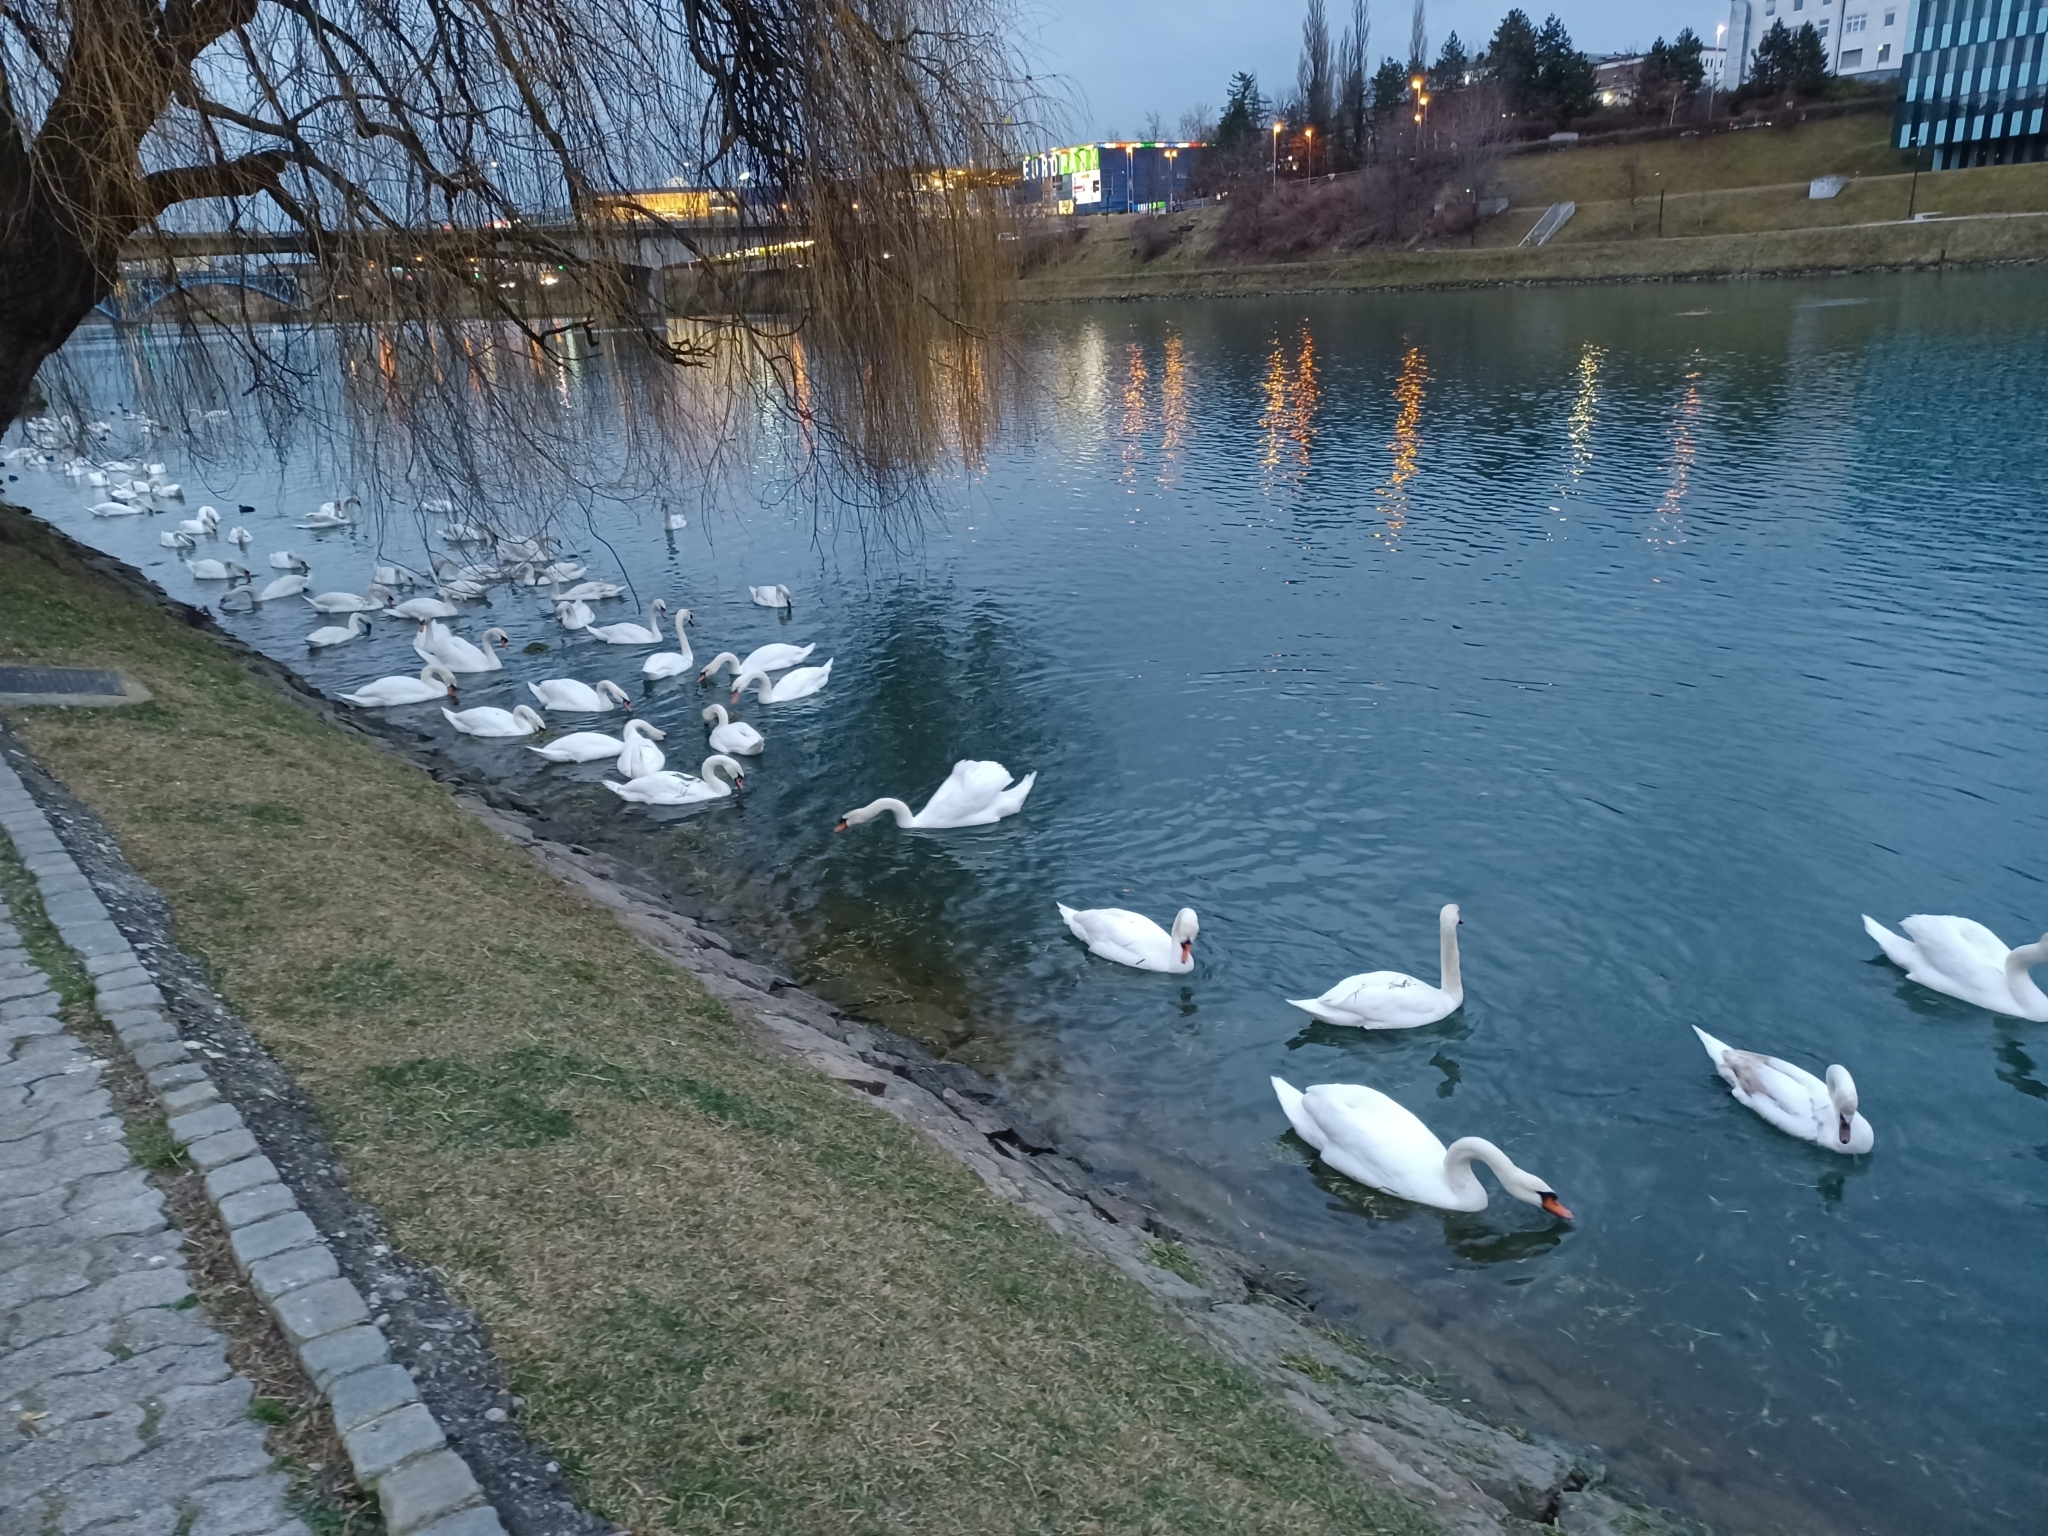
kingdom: Animalia
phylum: Chordata
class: Aves
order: Anseriformes
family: Anatidae
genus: Cygnus
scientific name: Cygnus olor
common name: Mute swan
